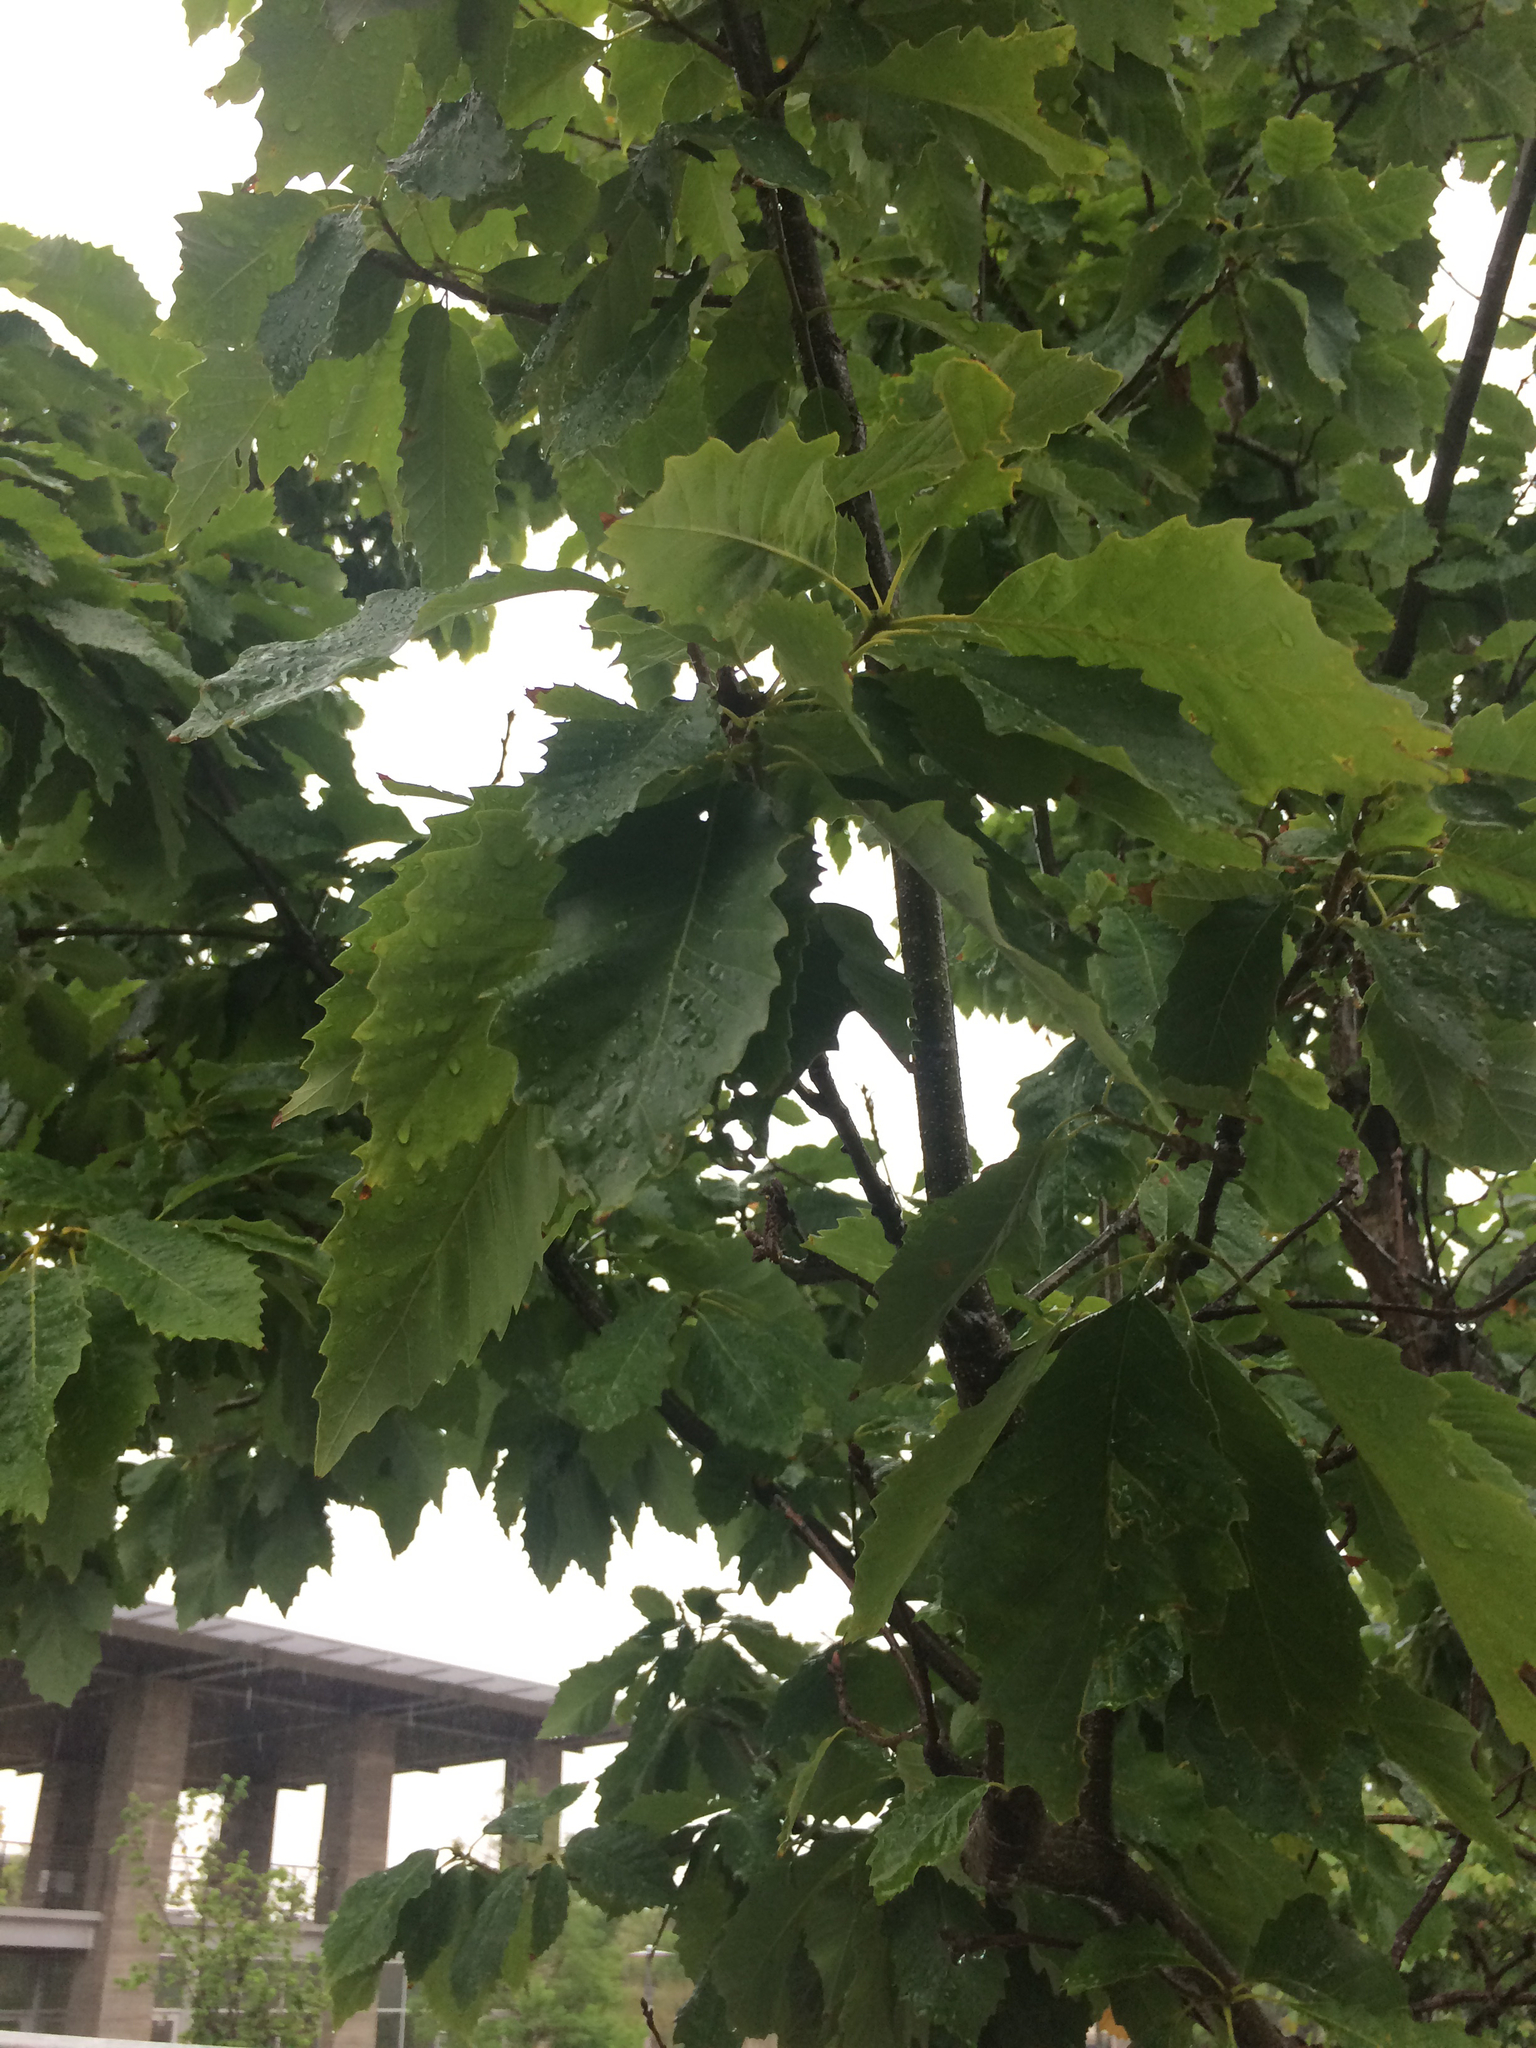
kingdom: Plantae
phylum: Tracheophyta
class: Magnoliopsida
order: Fagales
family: Fagaceae
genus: Quercus
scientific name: Quercus muehlenbergii
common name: Chinkapin oak
